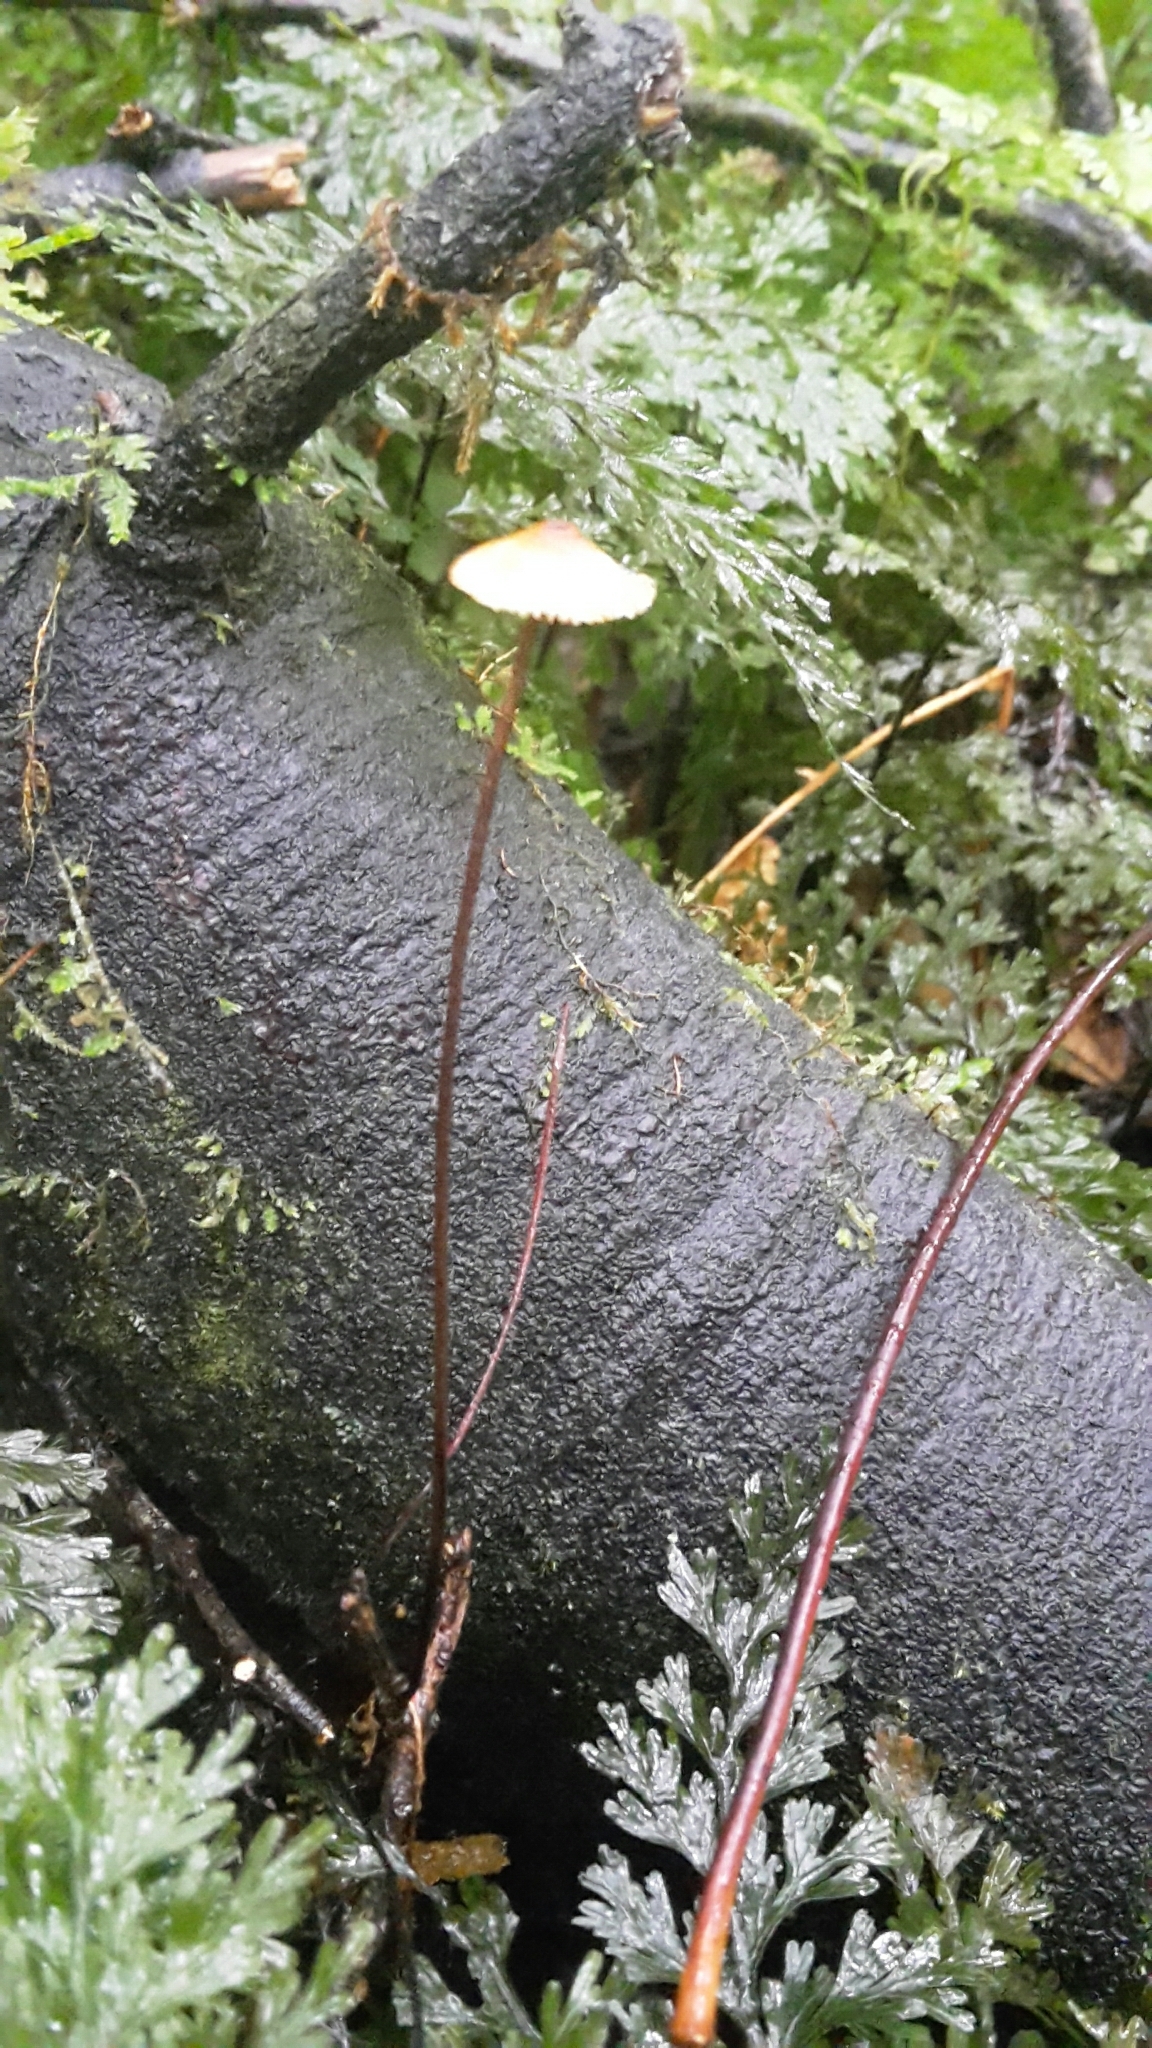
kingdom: Fungi
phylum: Basidiomycota
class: Agaricomycetes
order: Agaricales
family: Marasmiaceae
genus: Crinipellis
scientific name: Crinipellis procera
